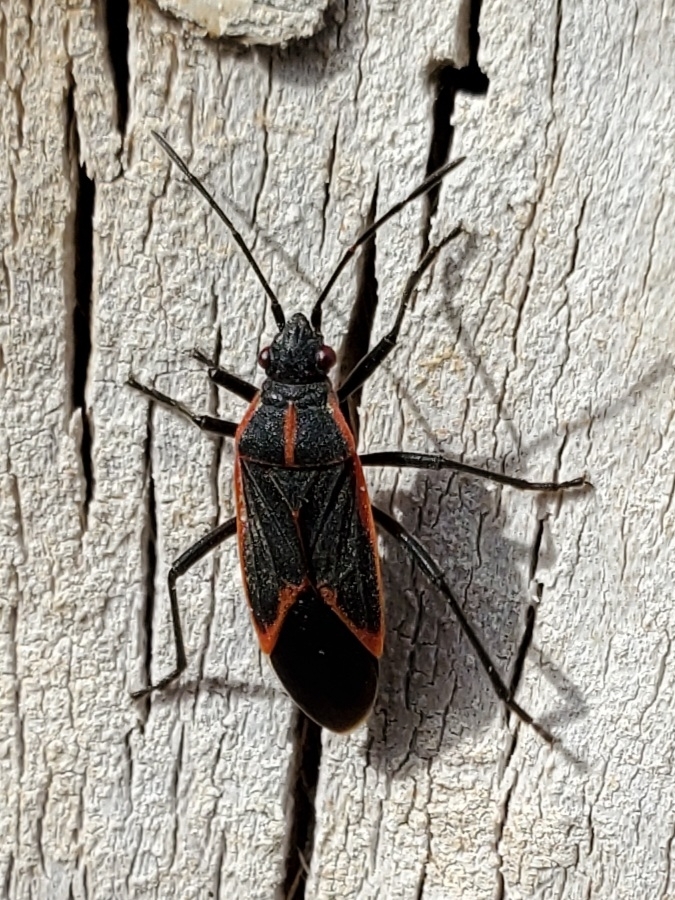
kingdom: Animalia
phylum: Arthropoda
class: Insecta
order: Hemiptera
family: Rhopalidae
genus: Boisea
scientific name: Boisea trivittata
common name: Boxelder bug
